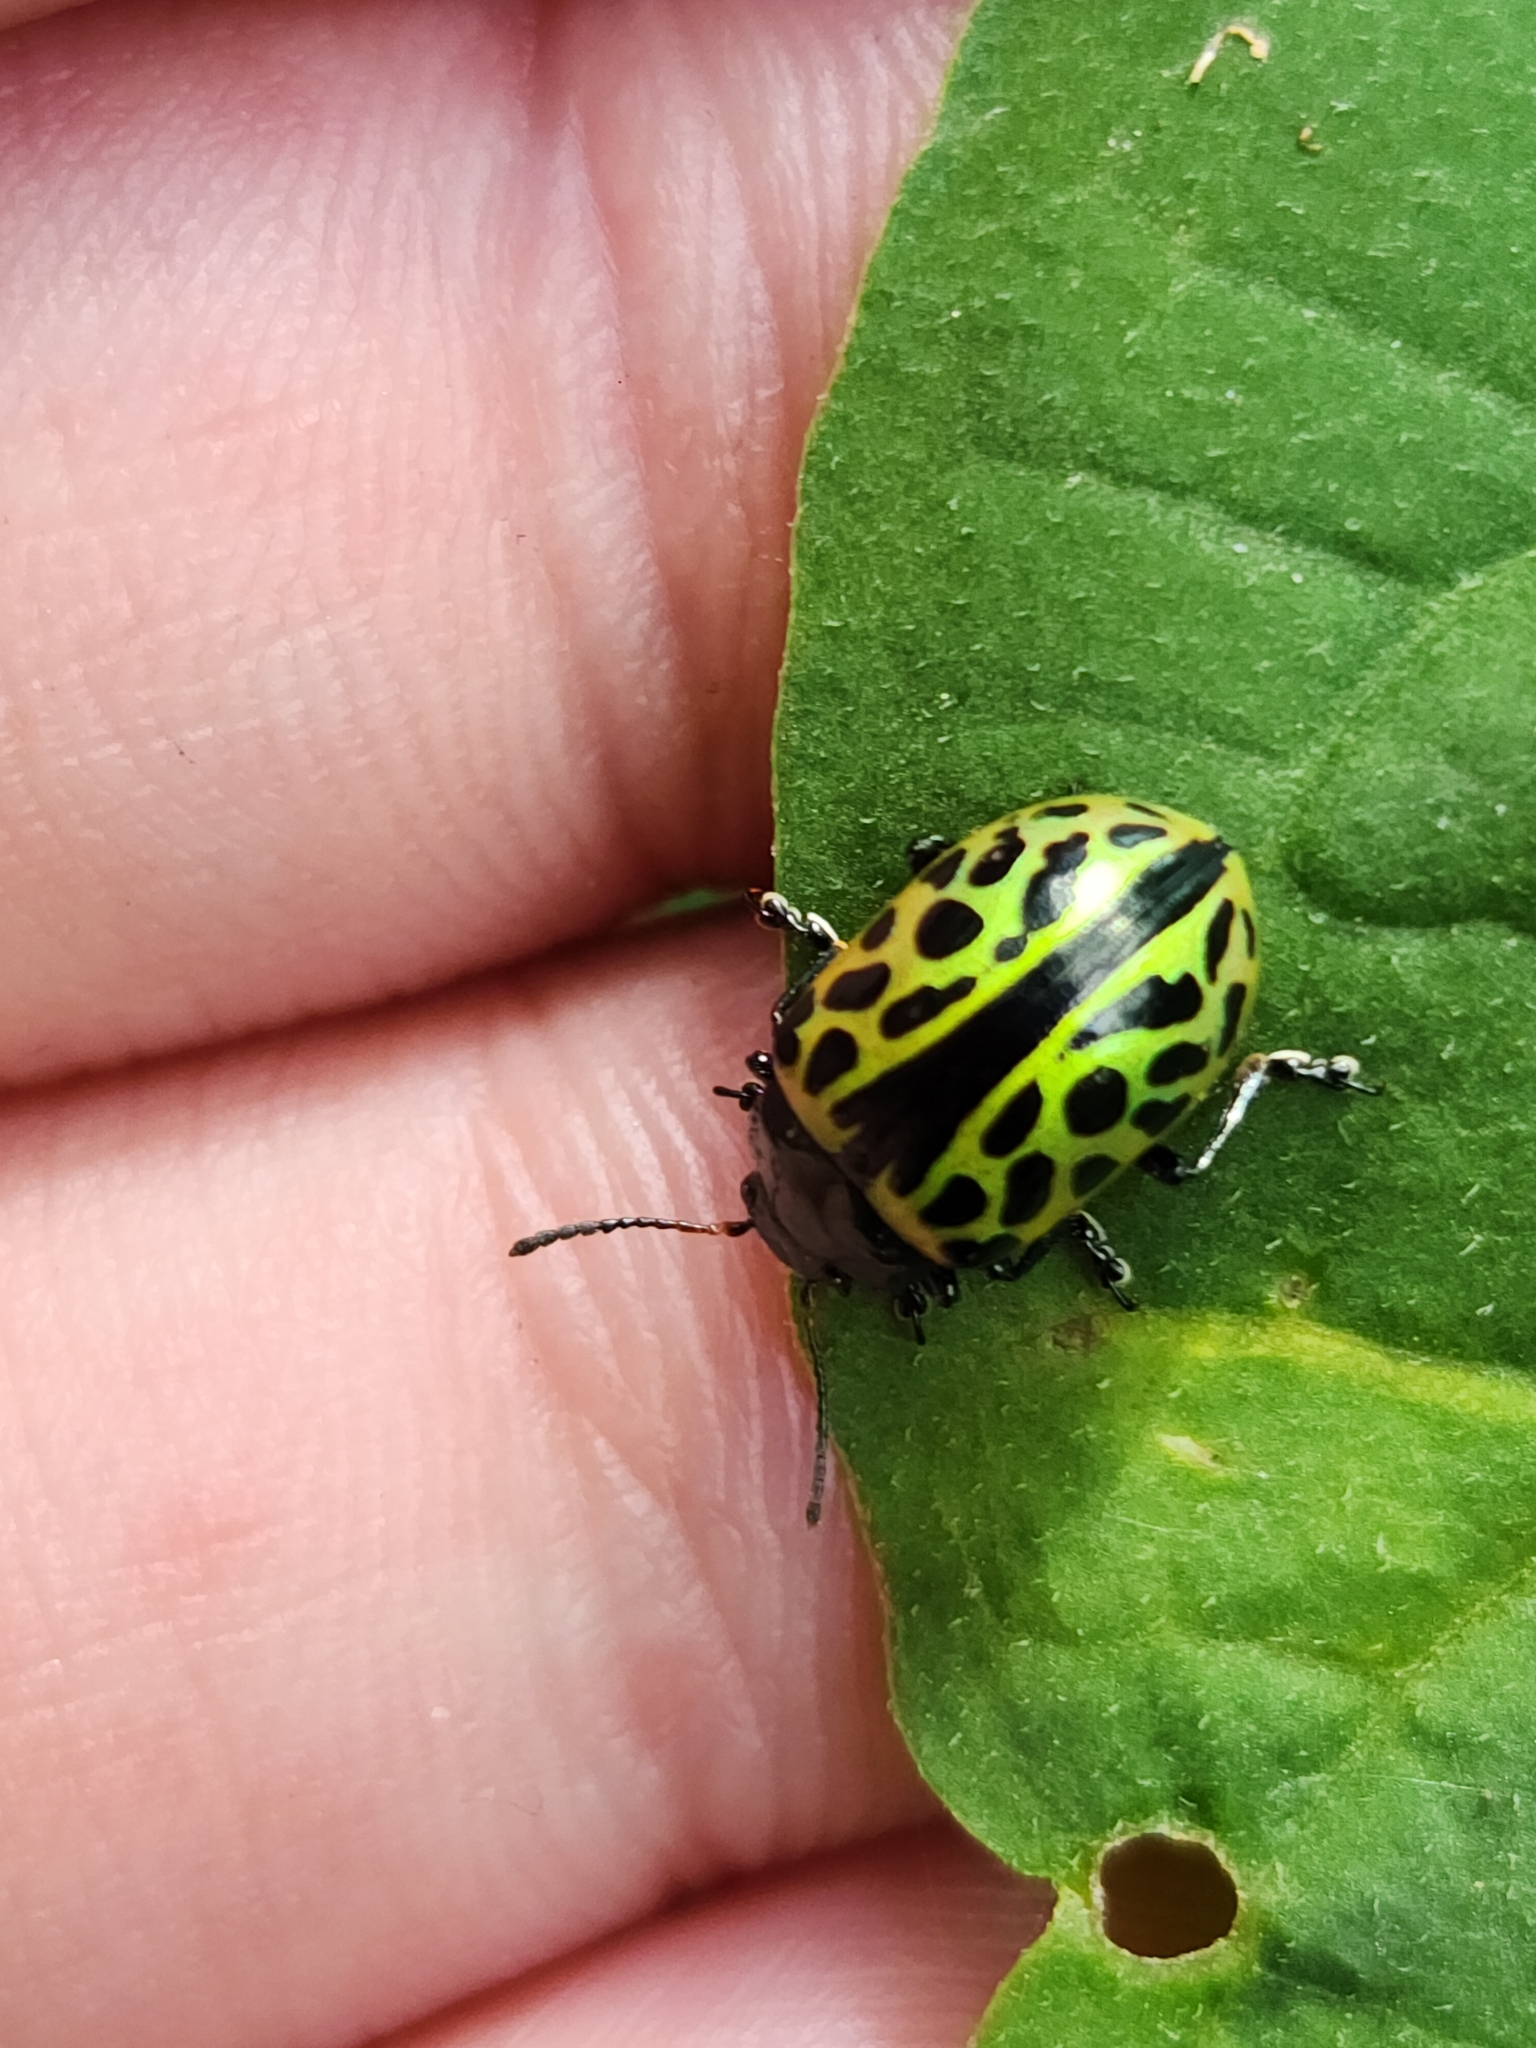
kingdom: Animalia
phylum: Arthropoda
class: Insecta
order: Coleoptera
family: Chrysomelidae
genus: Calligrapha
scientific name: Calligrapha multiplagata
